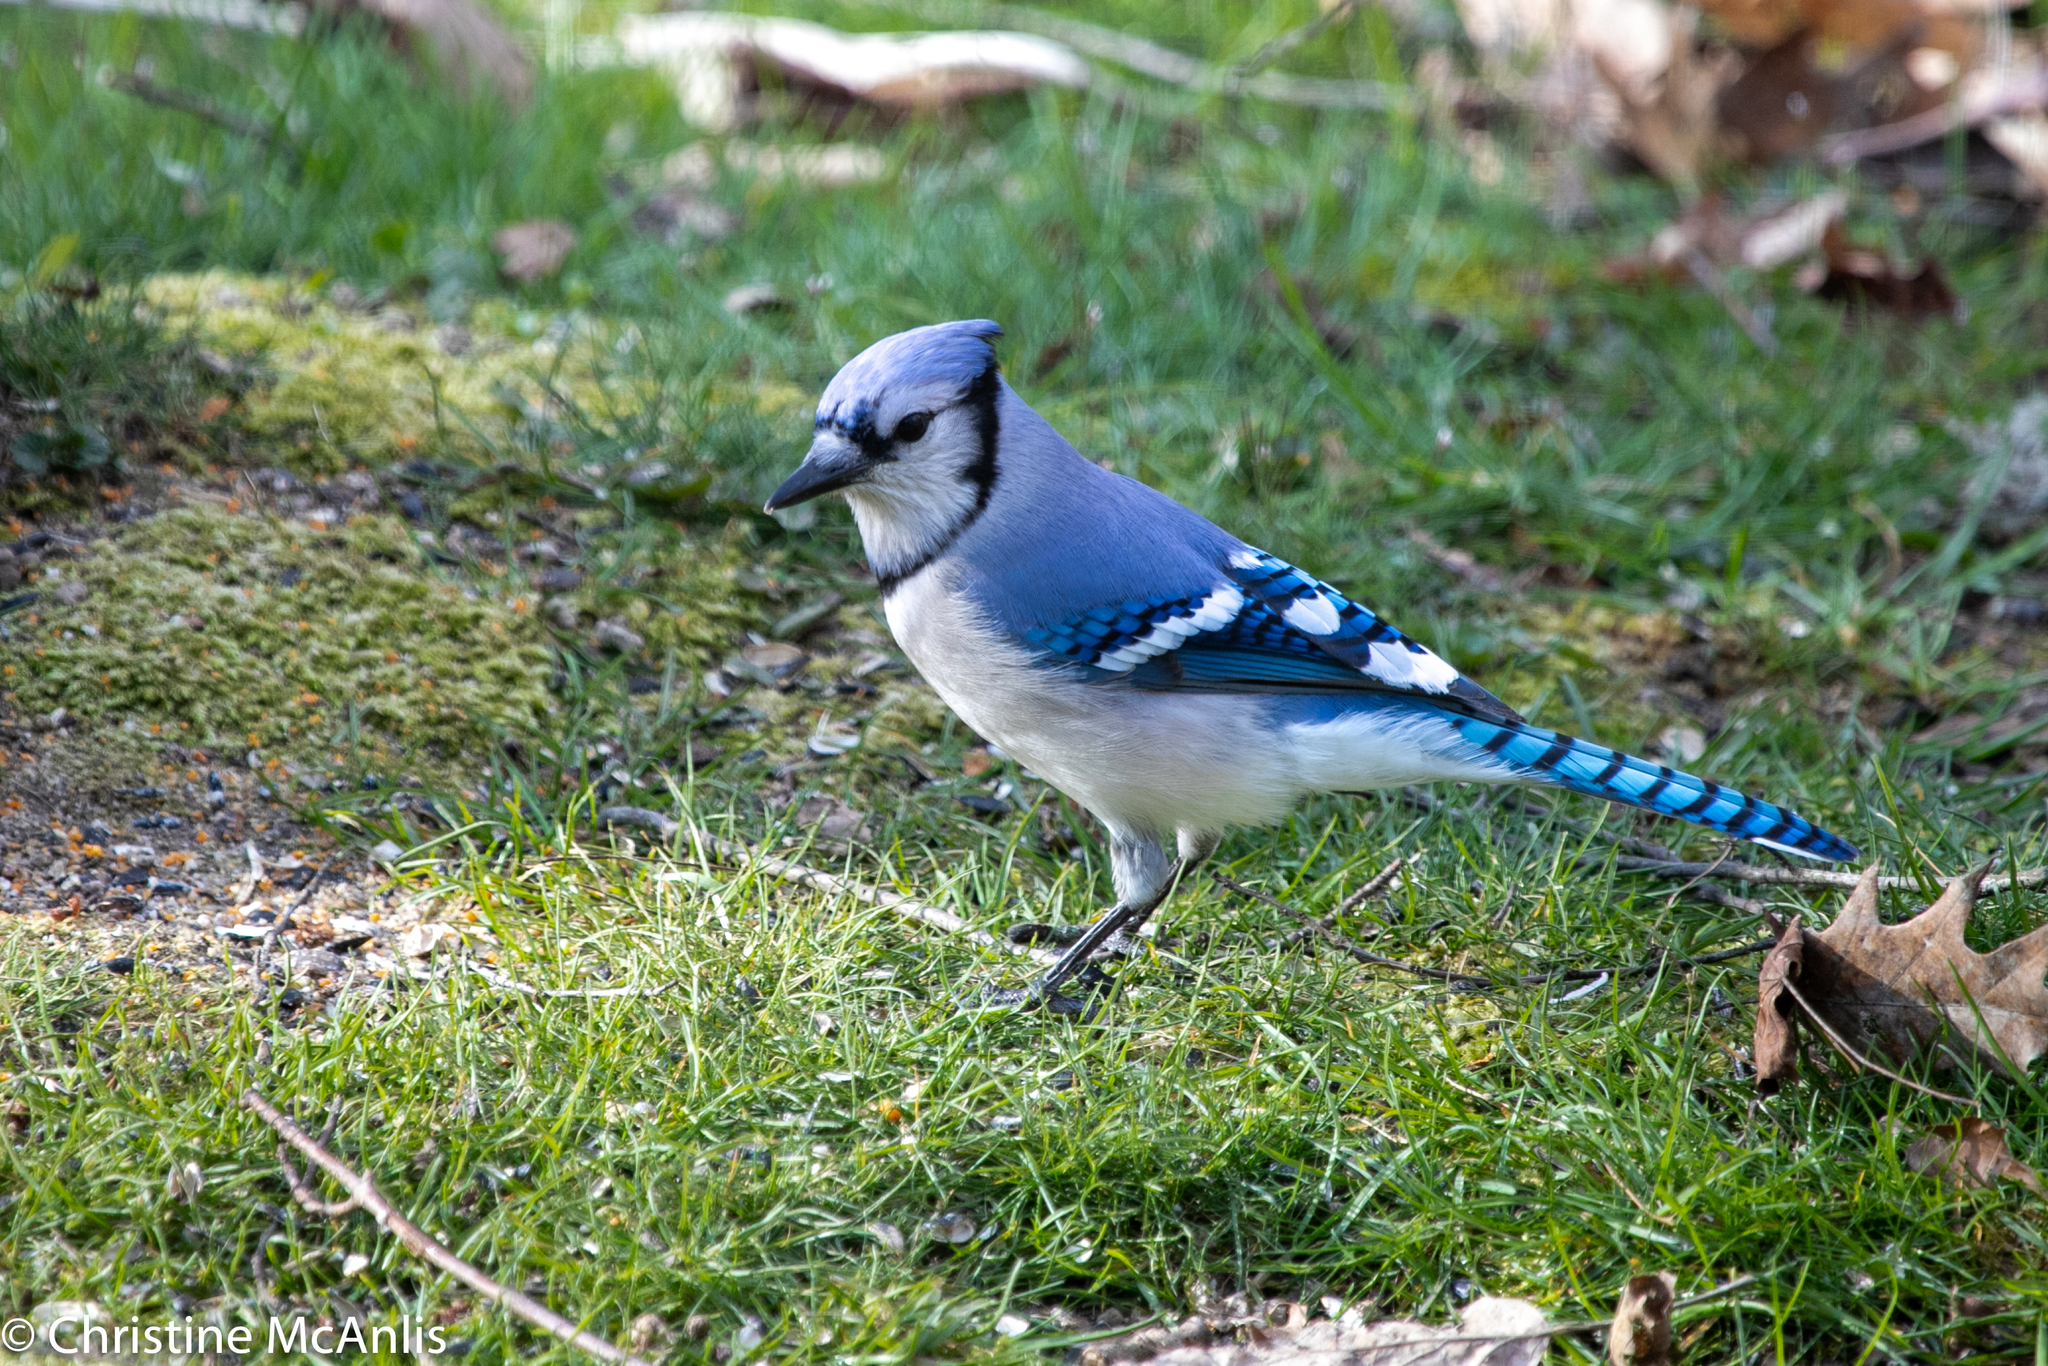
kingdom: Animalia
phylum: Chordata
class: Aves
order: Passeriformes
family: Corvidae
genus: Cyanocitta
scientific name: Cyanocitta cristata
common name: Blue jay
